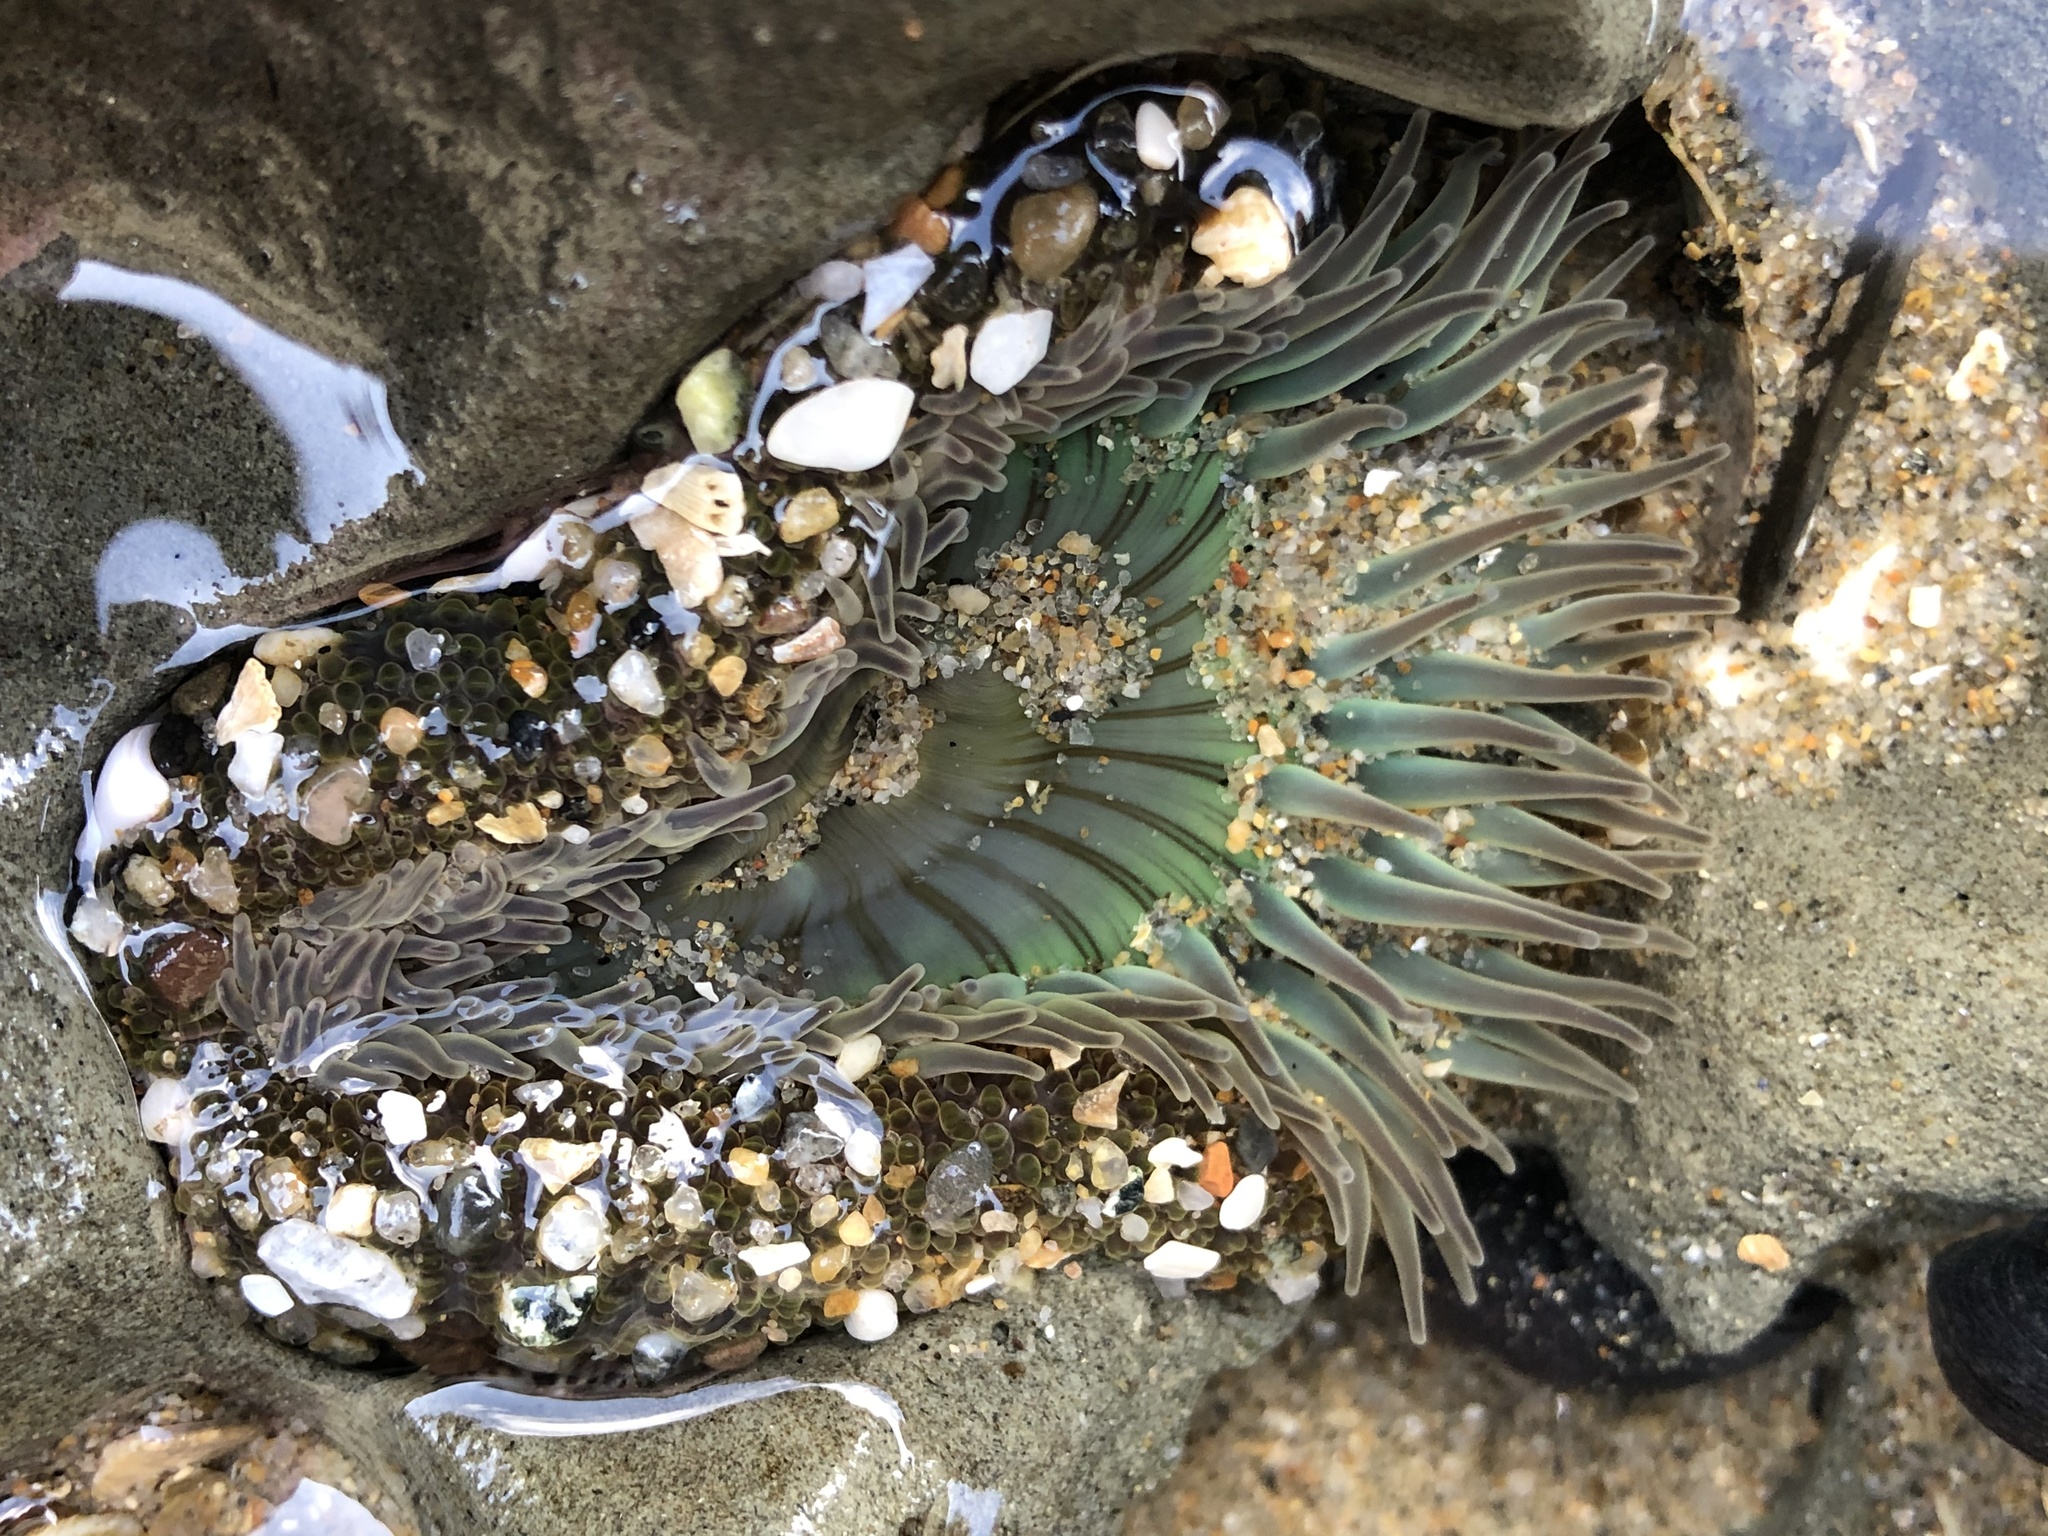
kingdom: Animalia
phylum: Cnidaria
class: Anthozoa
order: Actiniaria
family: Actiniidae
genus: Anthopleura
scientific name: Anthopleura sola
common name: Sun anemone
